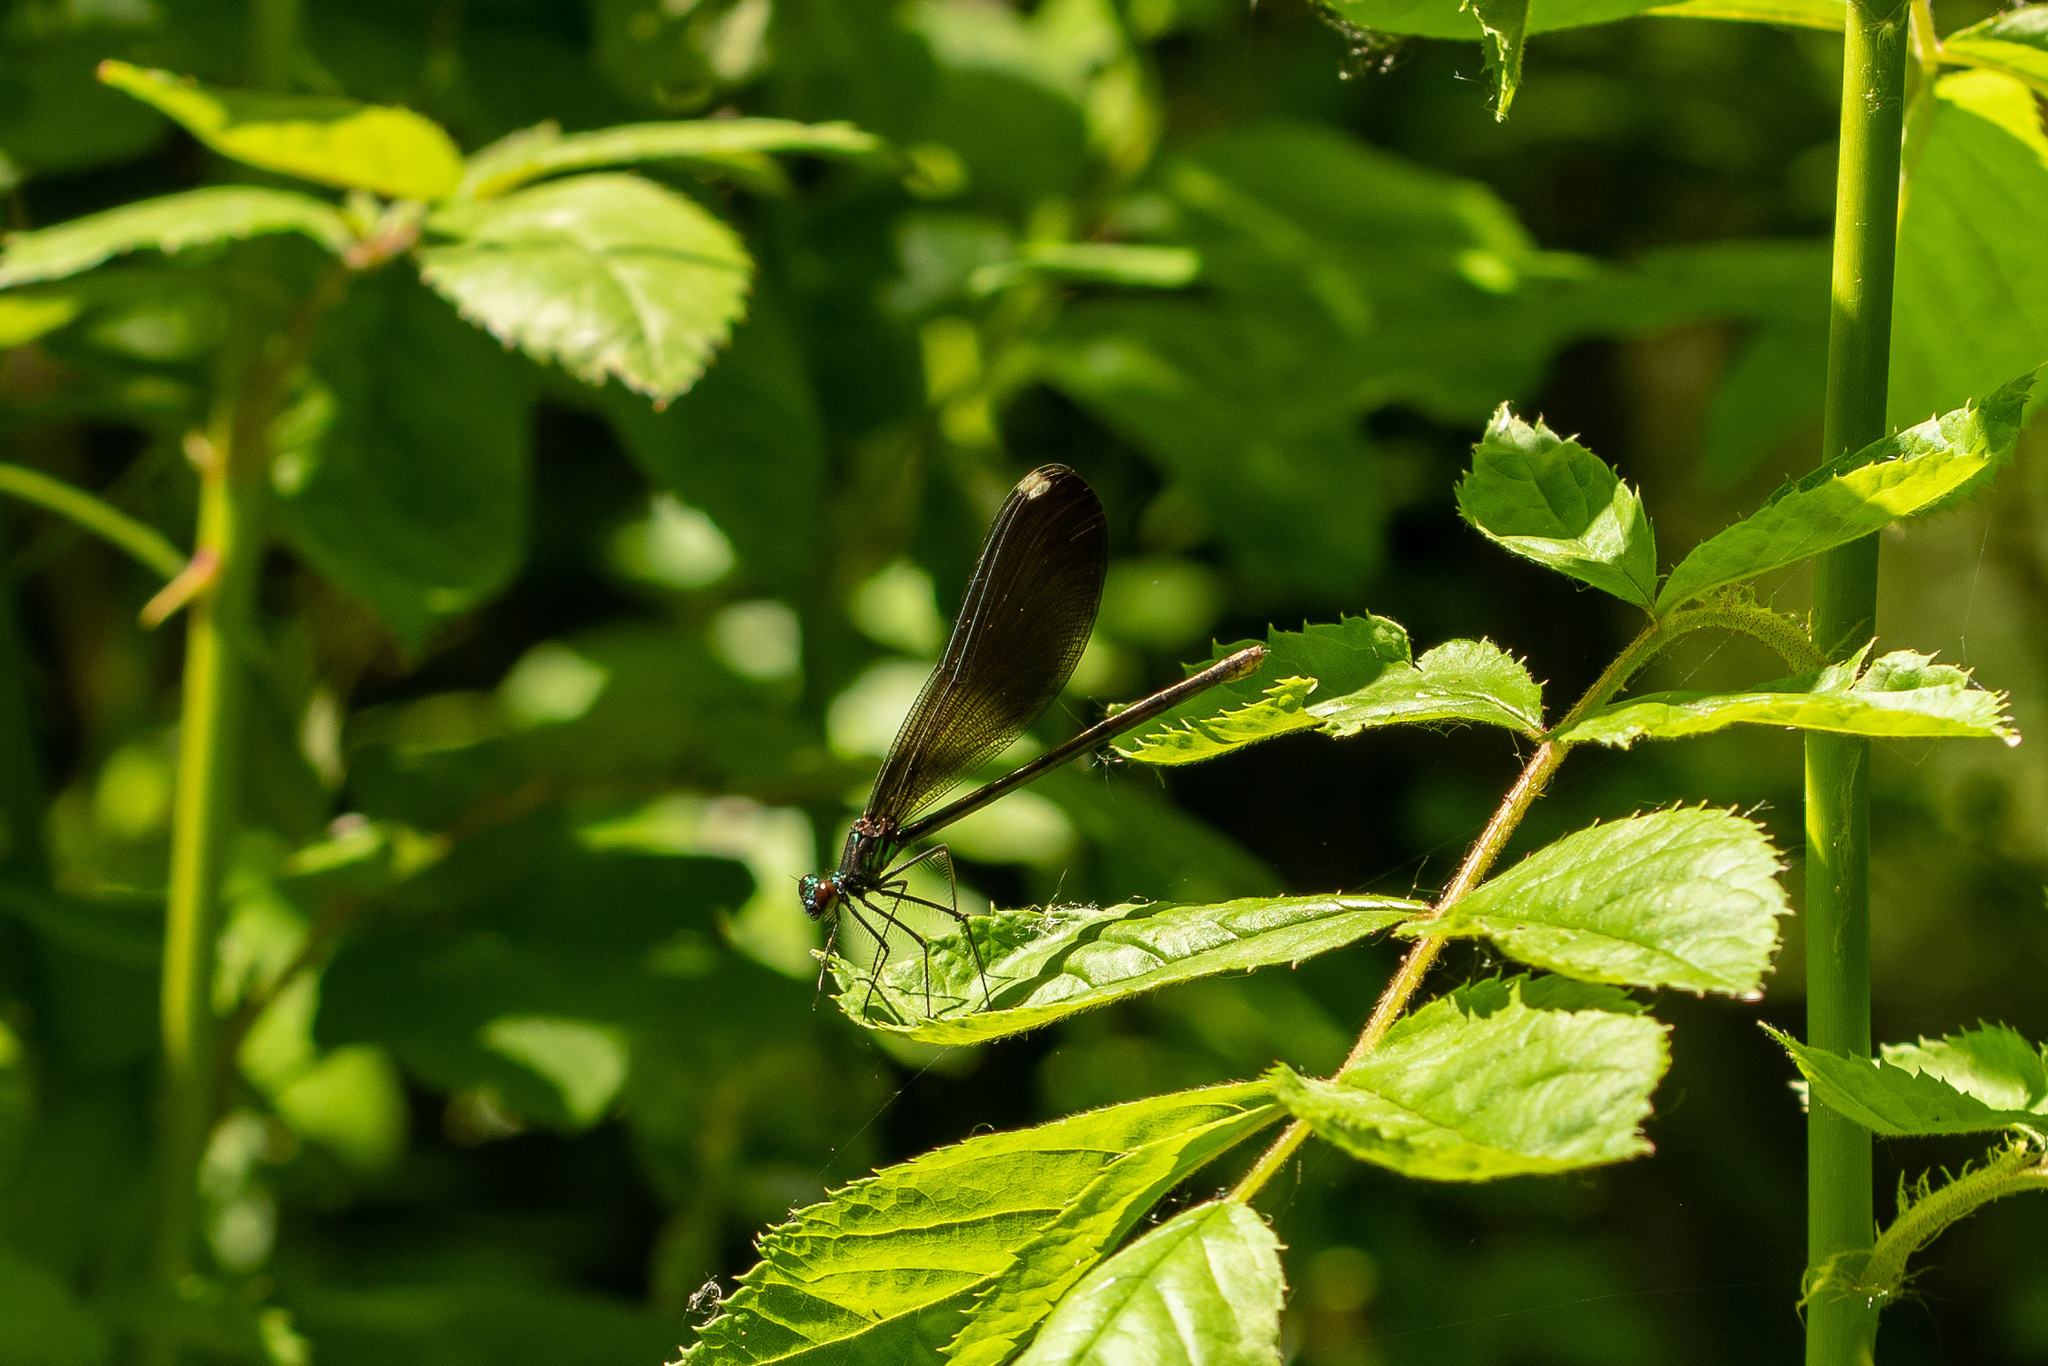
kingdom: Animalia
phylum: Arthropoda
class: Insecta
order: Odonata
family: Calopterygidae
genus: Calopteryx
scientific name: Calopteryx maculata
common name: Ebony jewelwing
